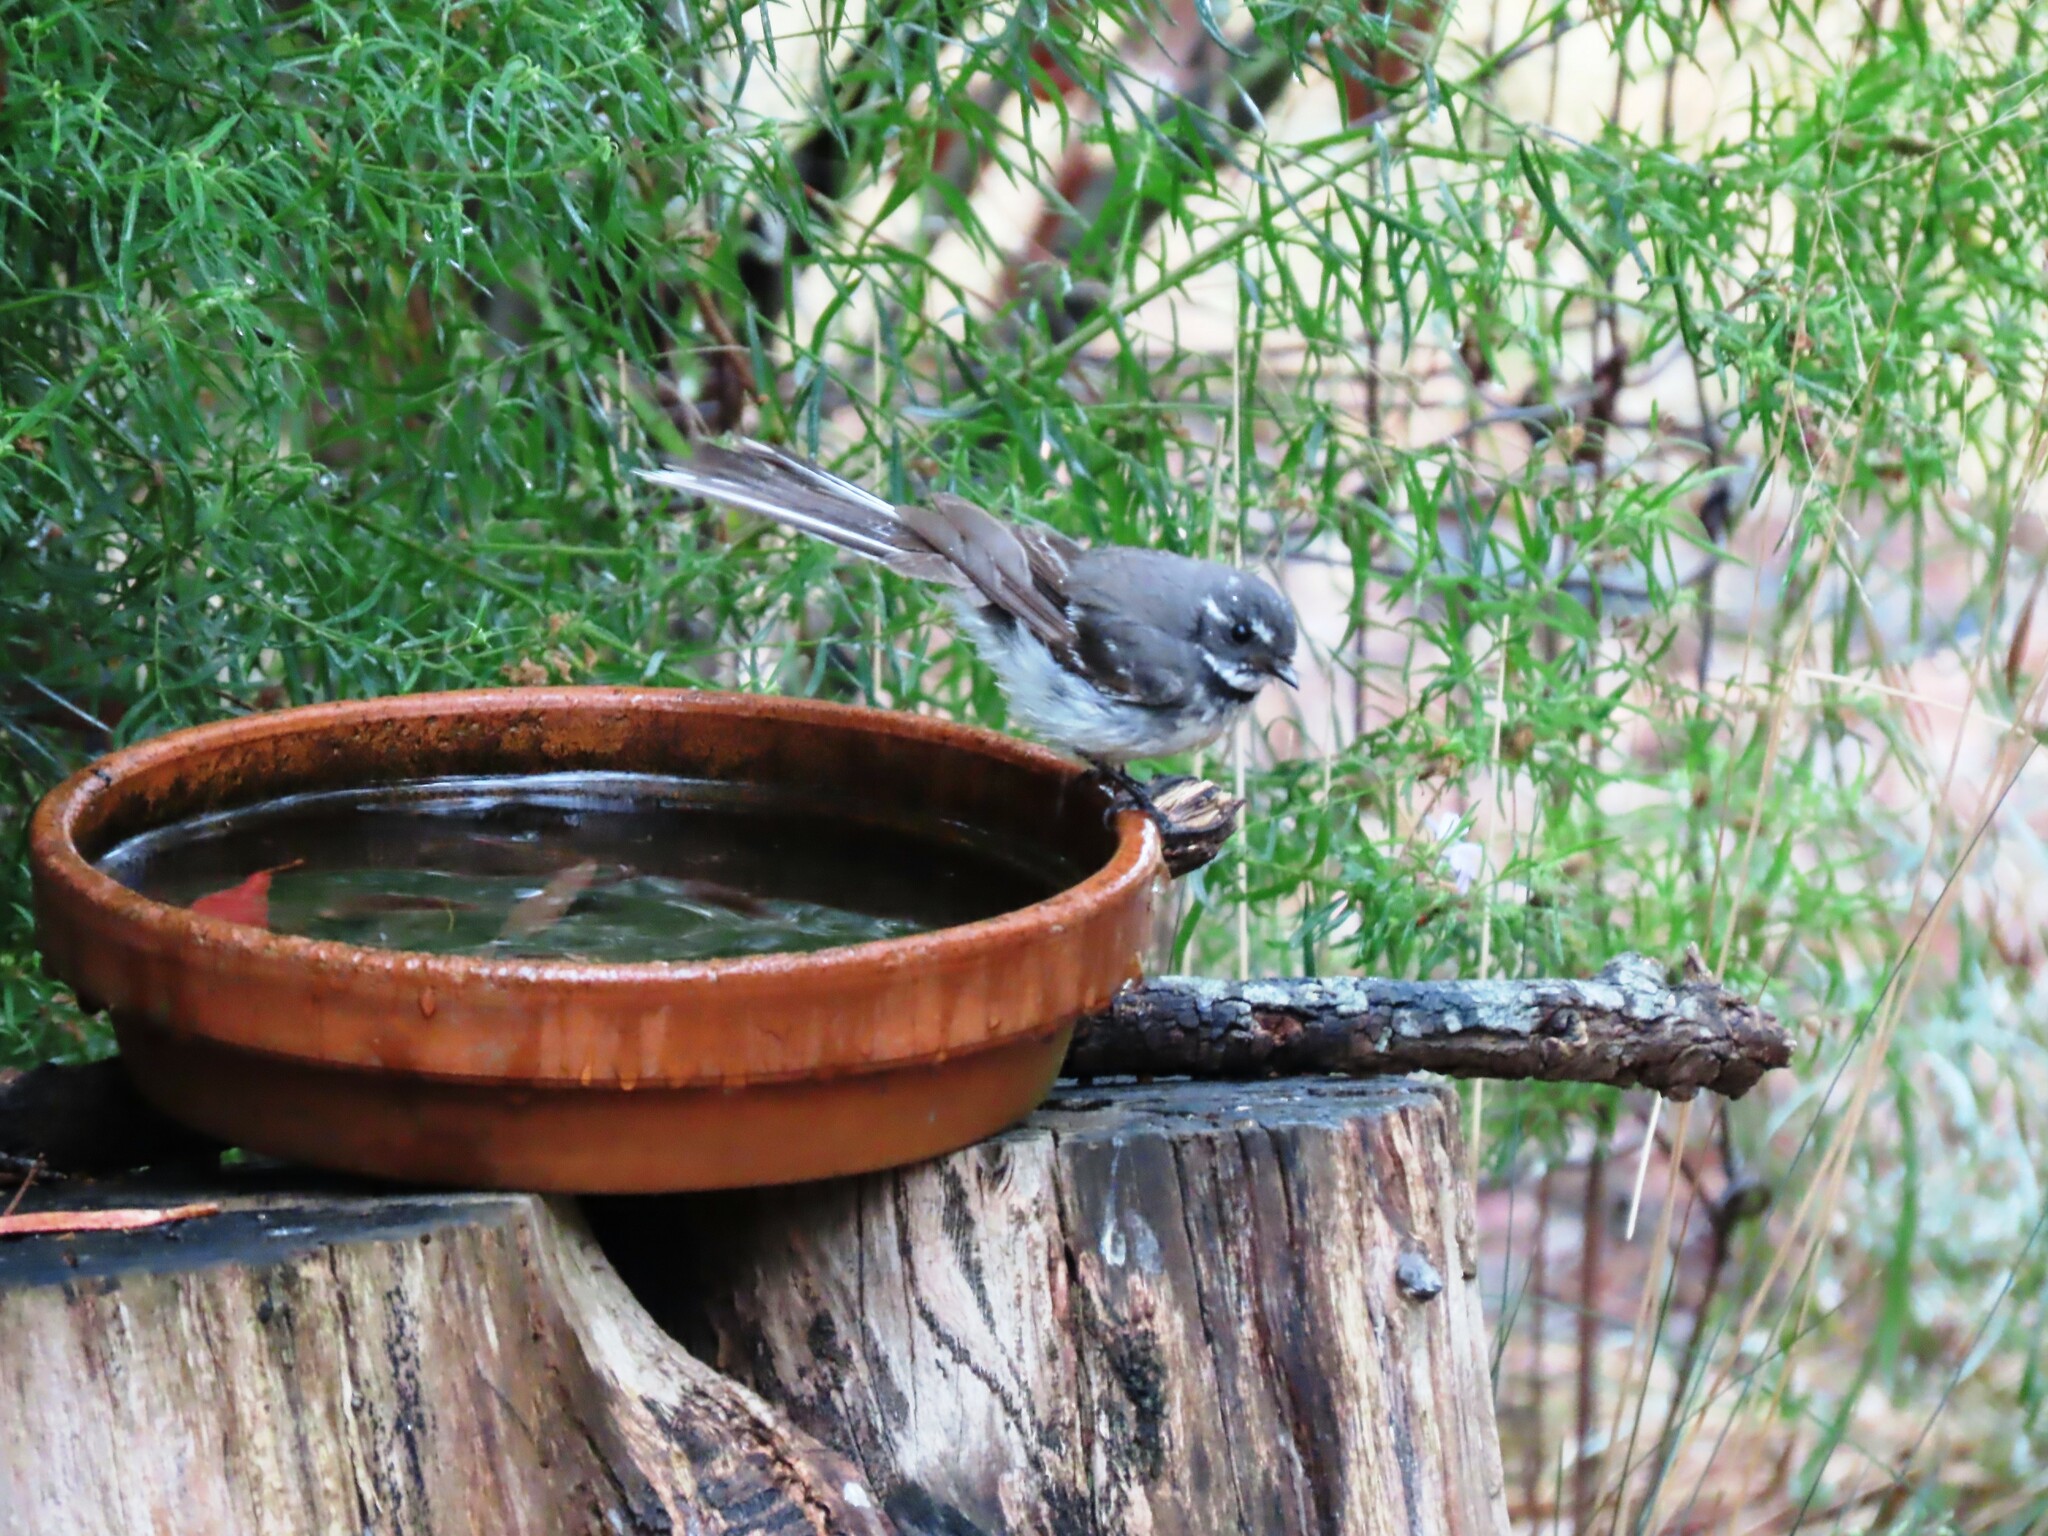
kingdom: Animalia
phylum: Chordata
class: Aves
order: Passeriformes
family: Rhipiduridae
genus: Rhipidura
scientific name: Rhipidura albiscapa
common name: Grey fantail
